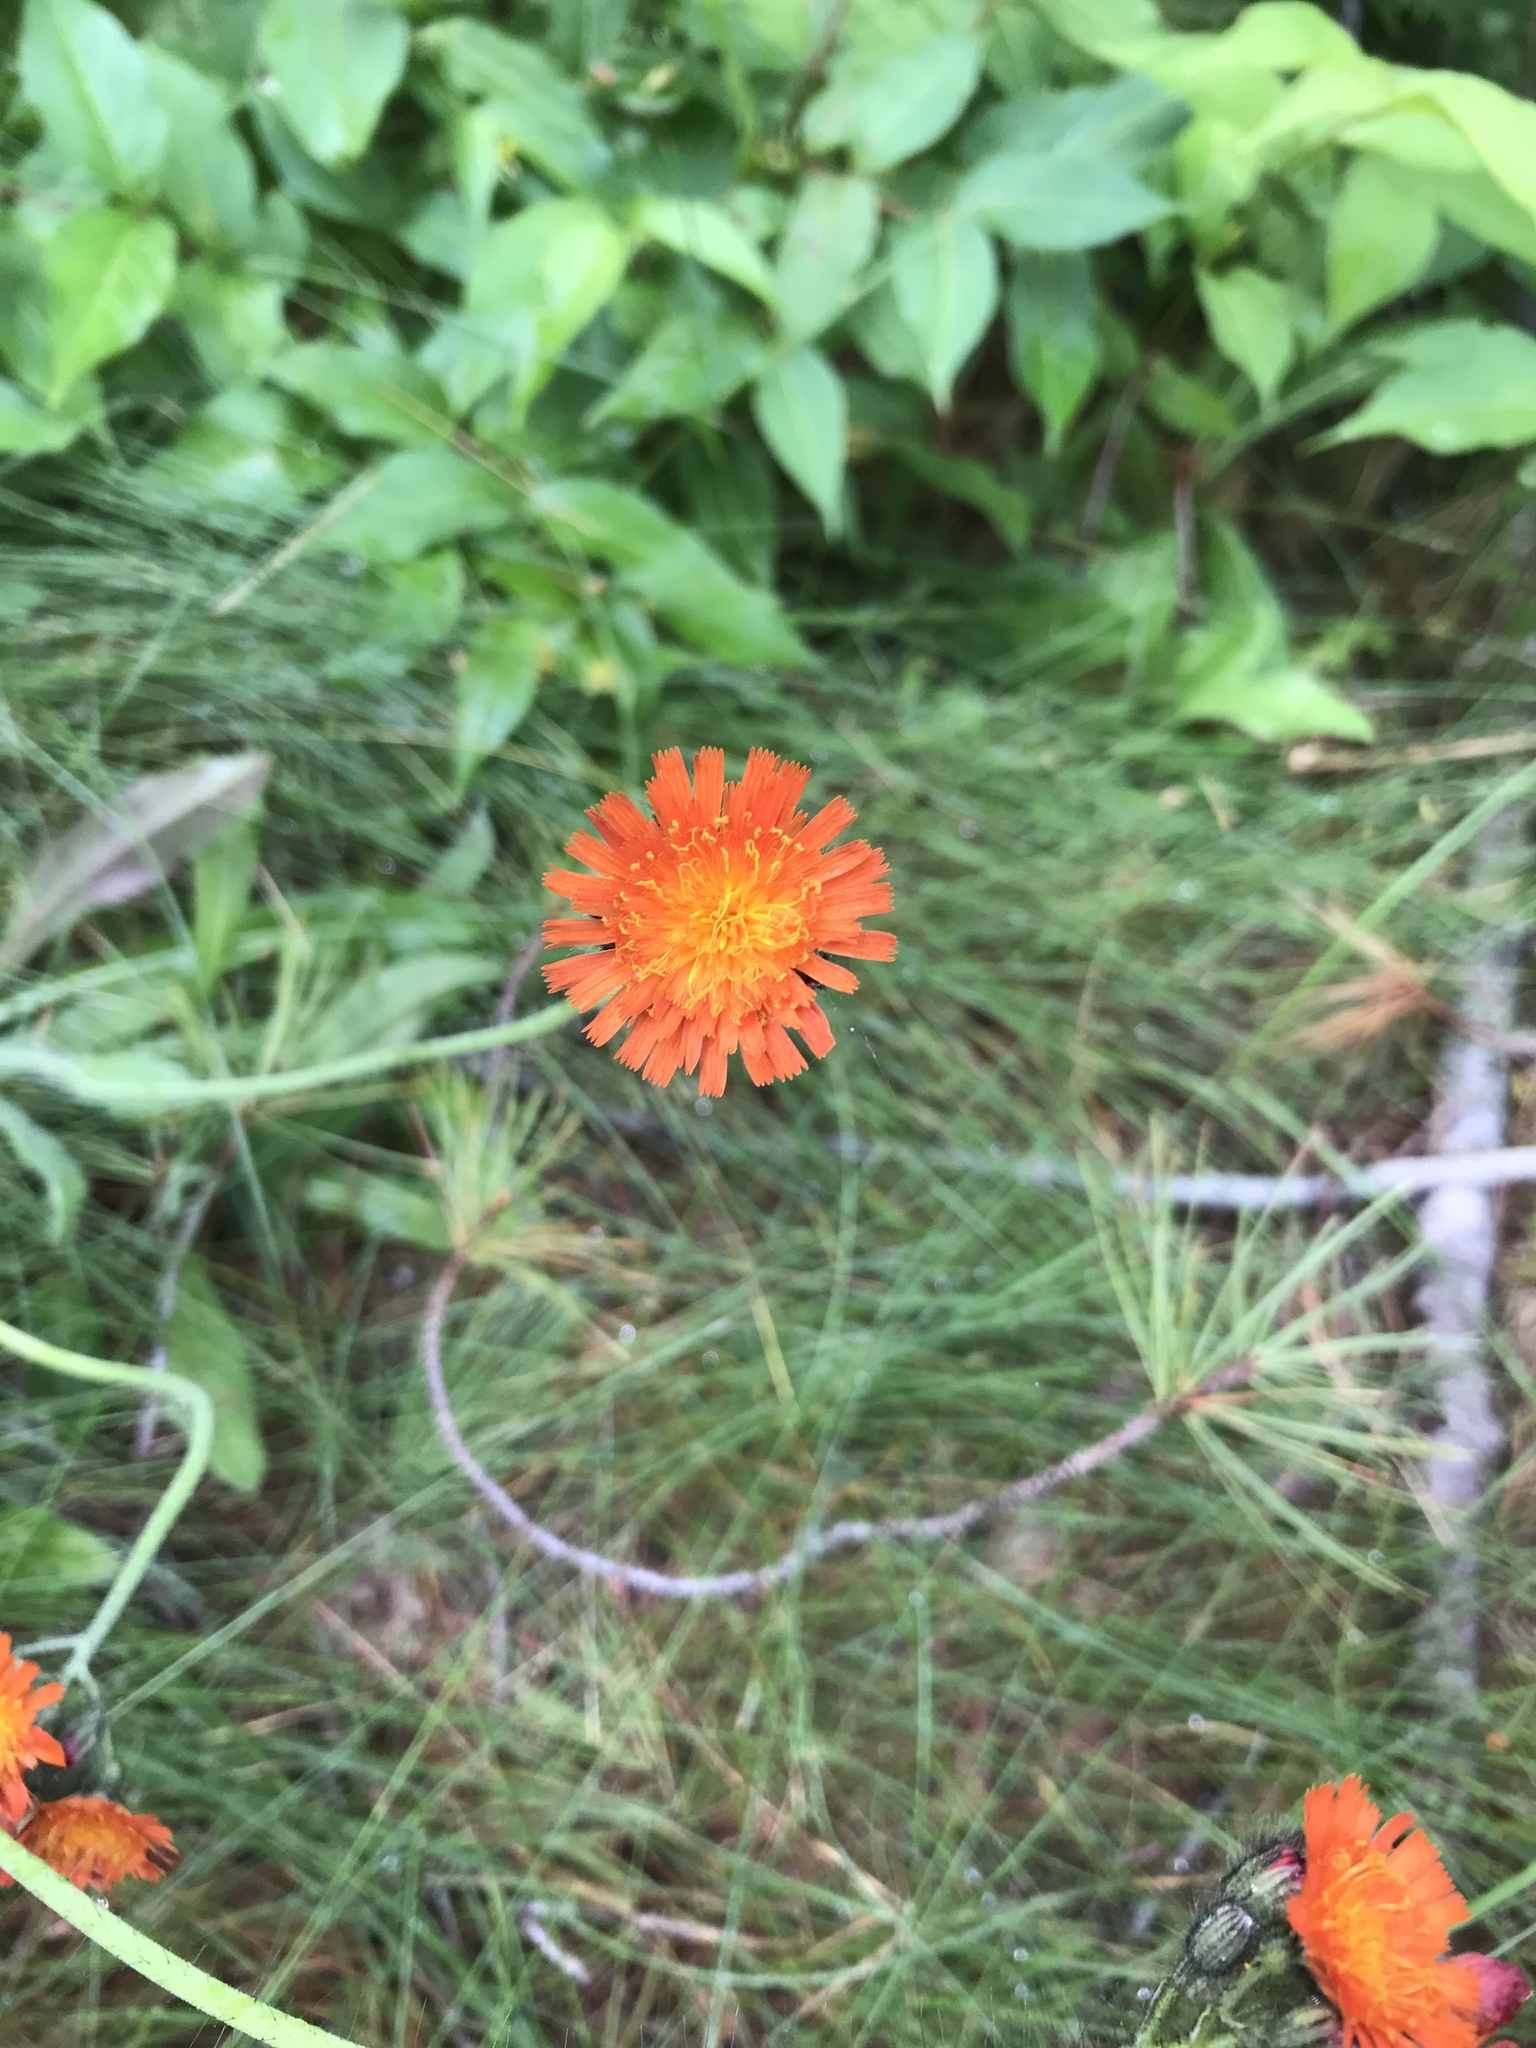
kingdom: Plantae
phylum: Tracheophyta
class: Magnoliopsida
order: Asterales
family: Asteraceae
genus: Pilosella
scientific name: Pilosella aurantiaca
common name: Fox-and-cubs
